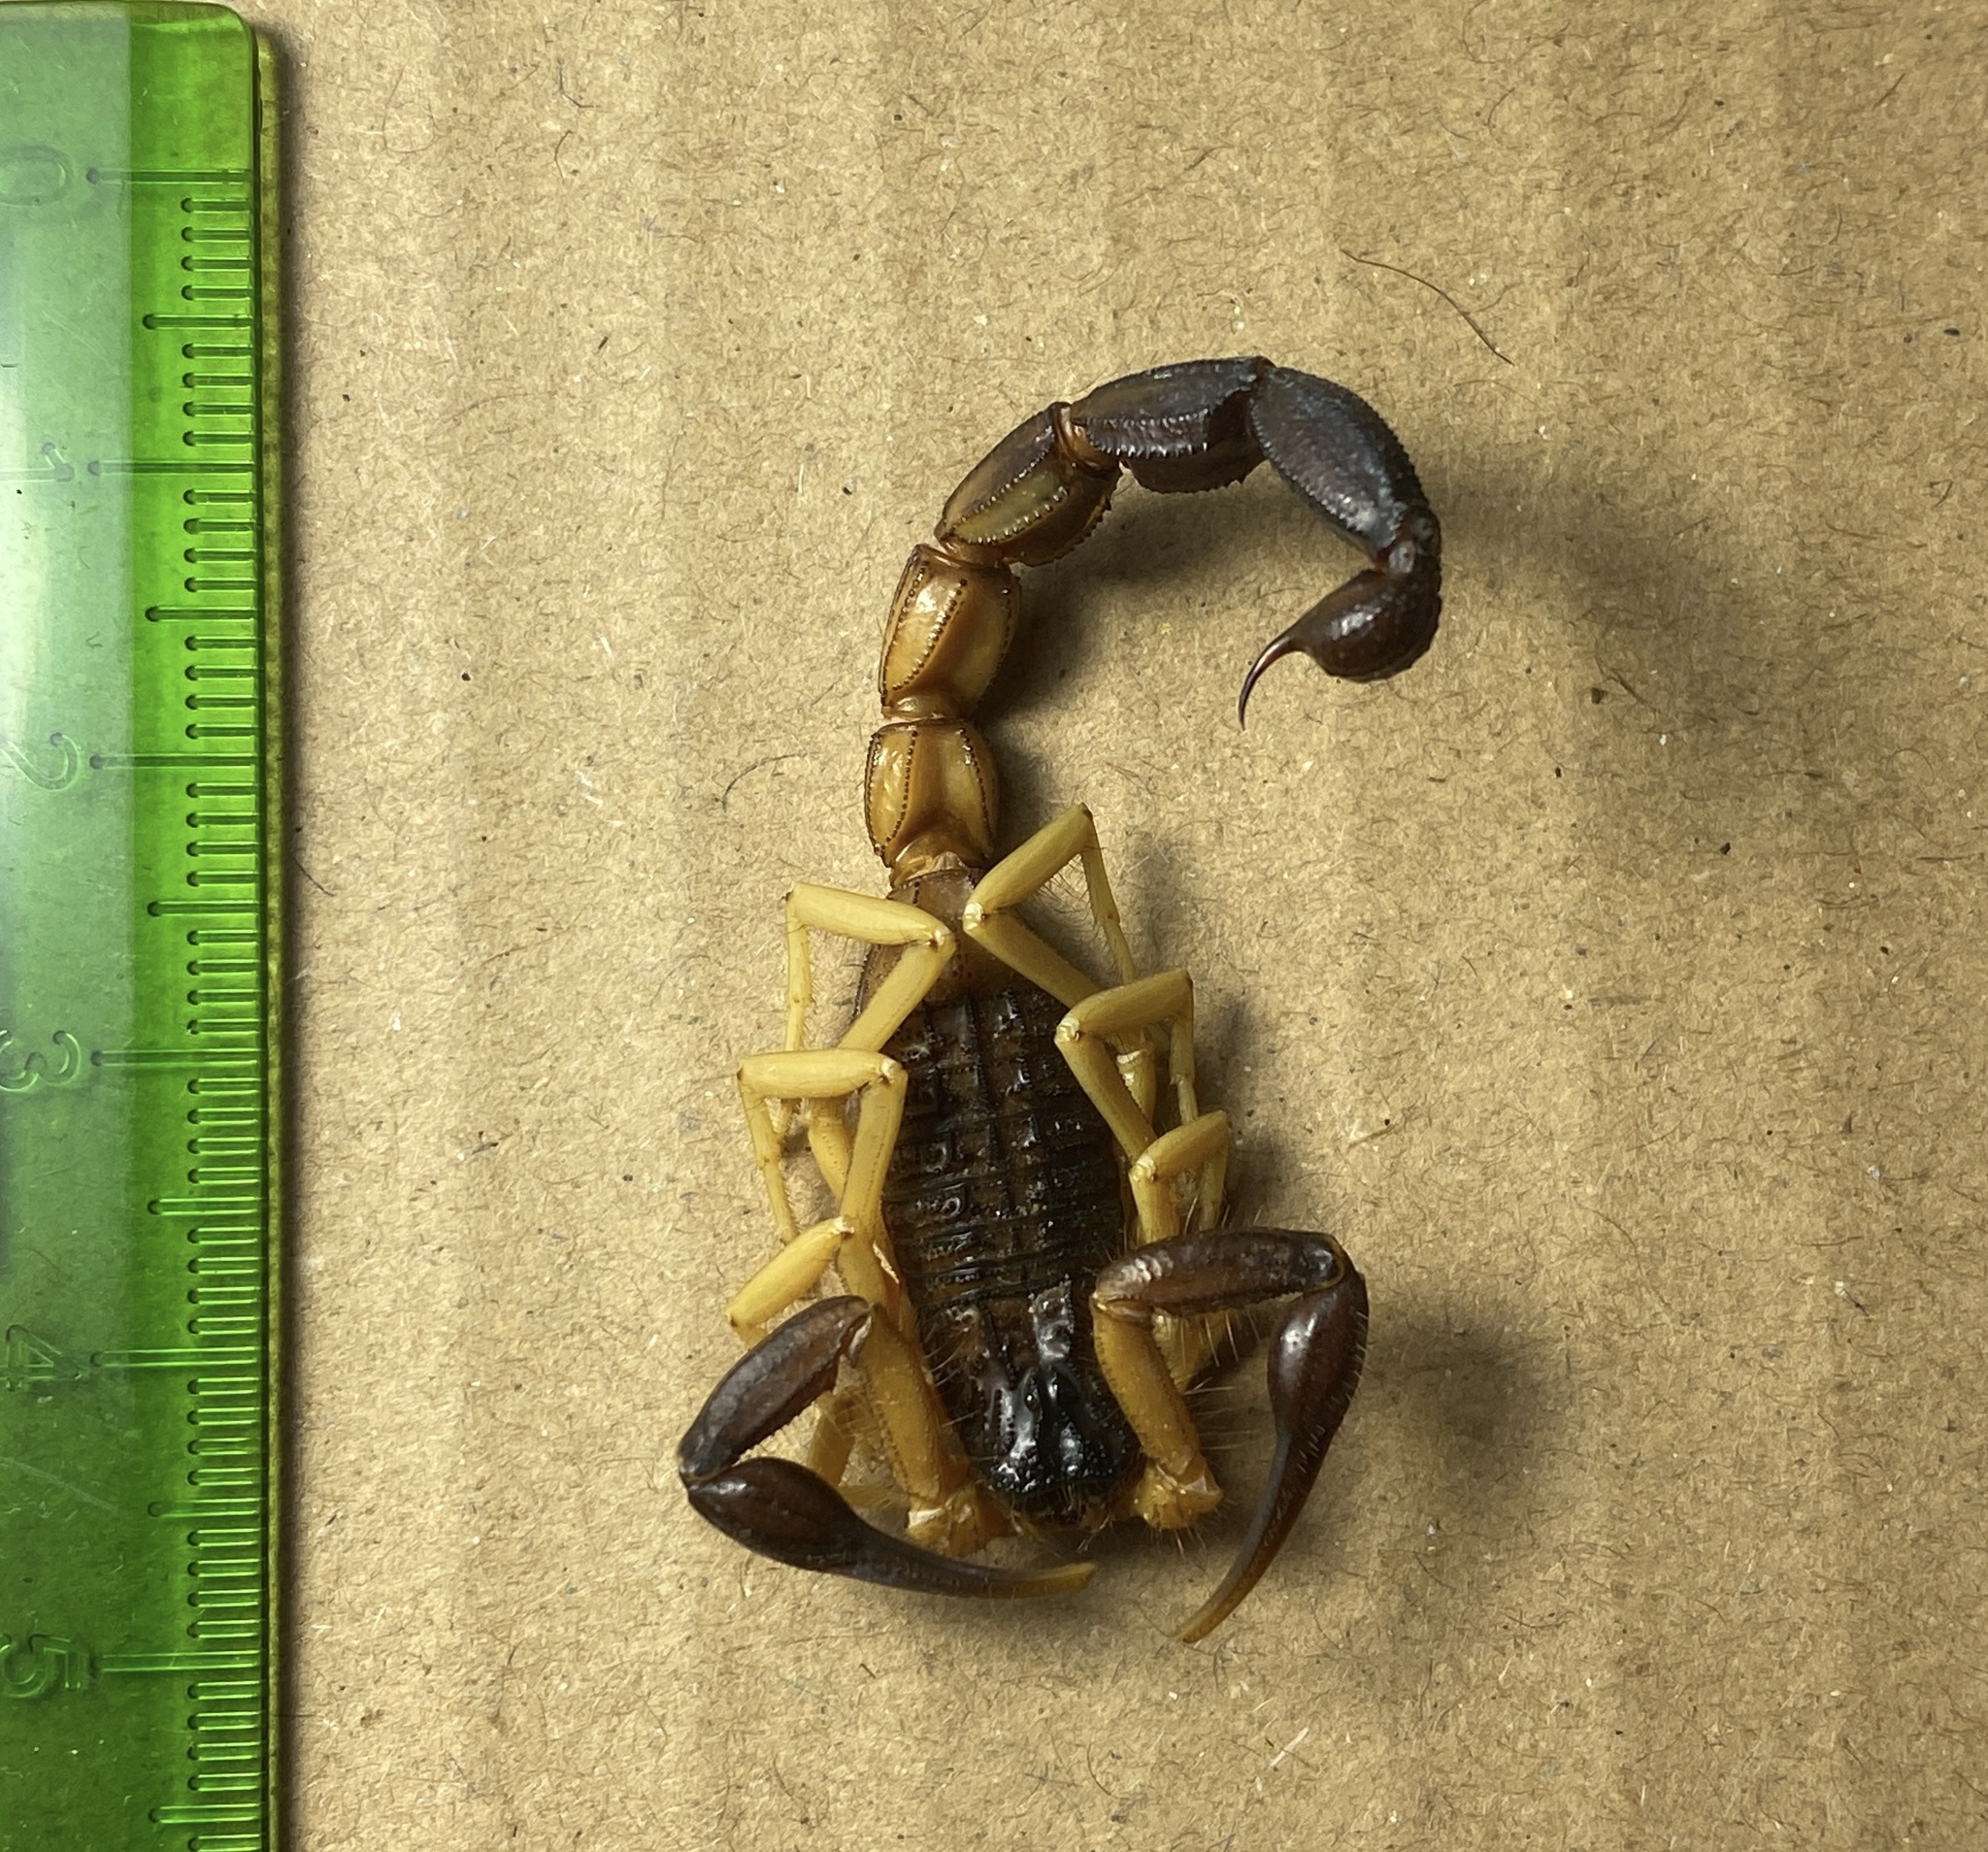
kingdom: Animalia
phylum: Arthropoda
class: Arachnida
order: Scorpiones
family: Buthidae
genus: Hottentotta
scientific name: Hottentotta jayakari
